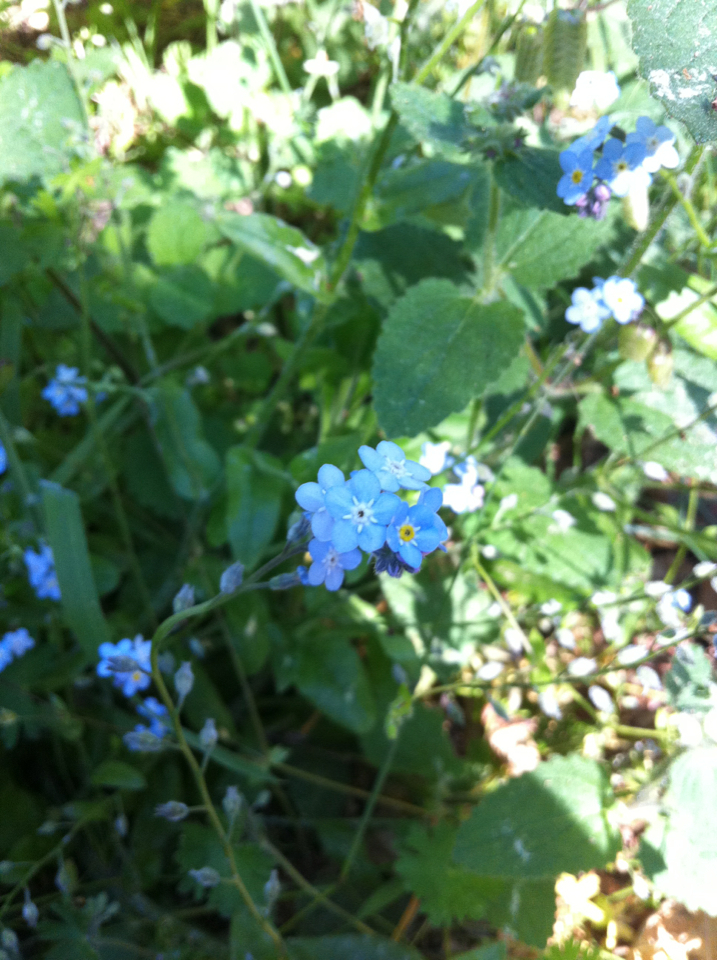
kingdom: Plantae
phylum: Tracheophyta
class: Magnoliopsida
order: Boraginales
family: Boraginaceae
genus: Myosotis
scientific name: Myosotis latifolia
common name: Broadleaf forget-me-not
